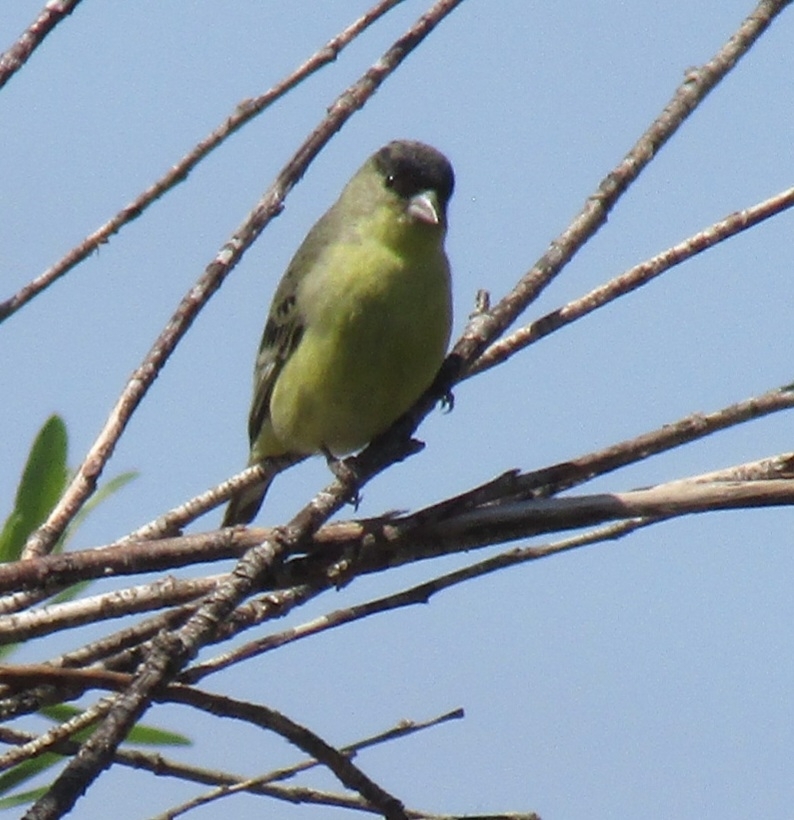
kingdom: Animalia
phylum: Chordata
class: Aves
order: Passeriformes
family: Fringillidae
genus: Spinus
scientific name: Spinus psaltria
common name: Lesser goldfinch
